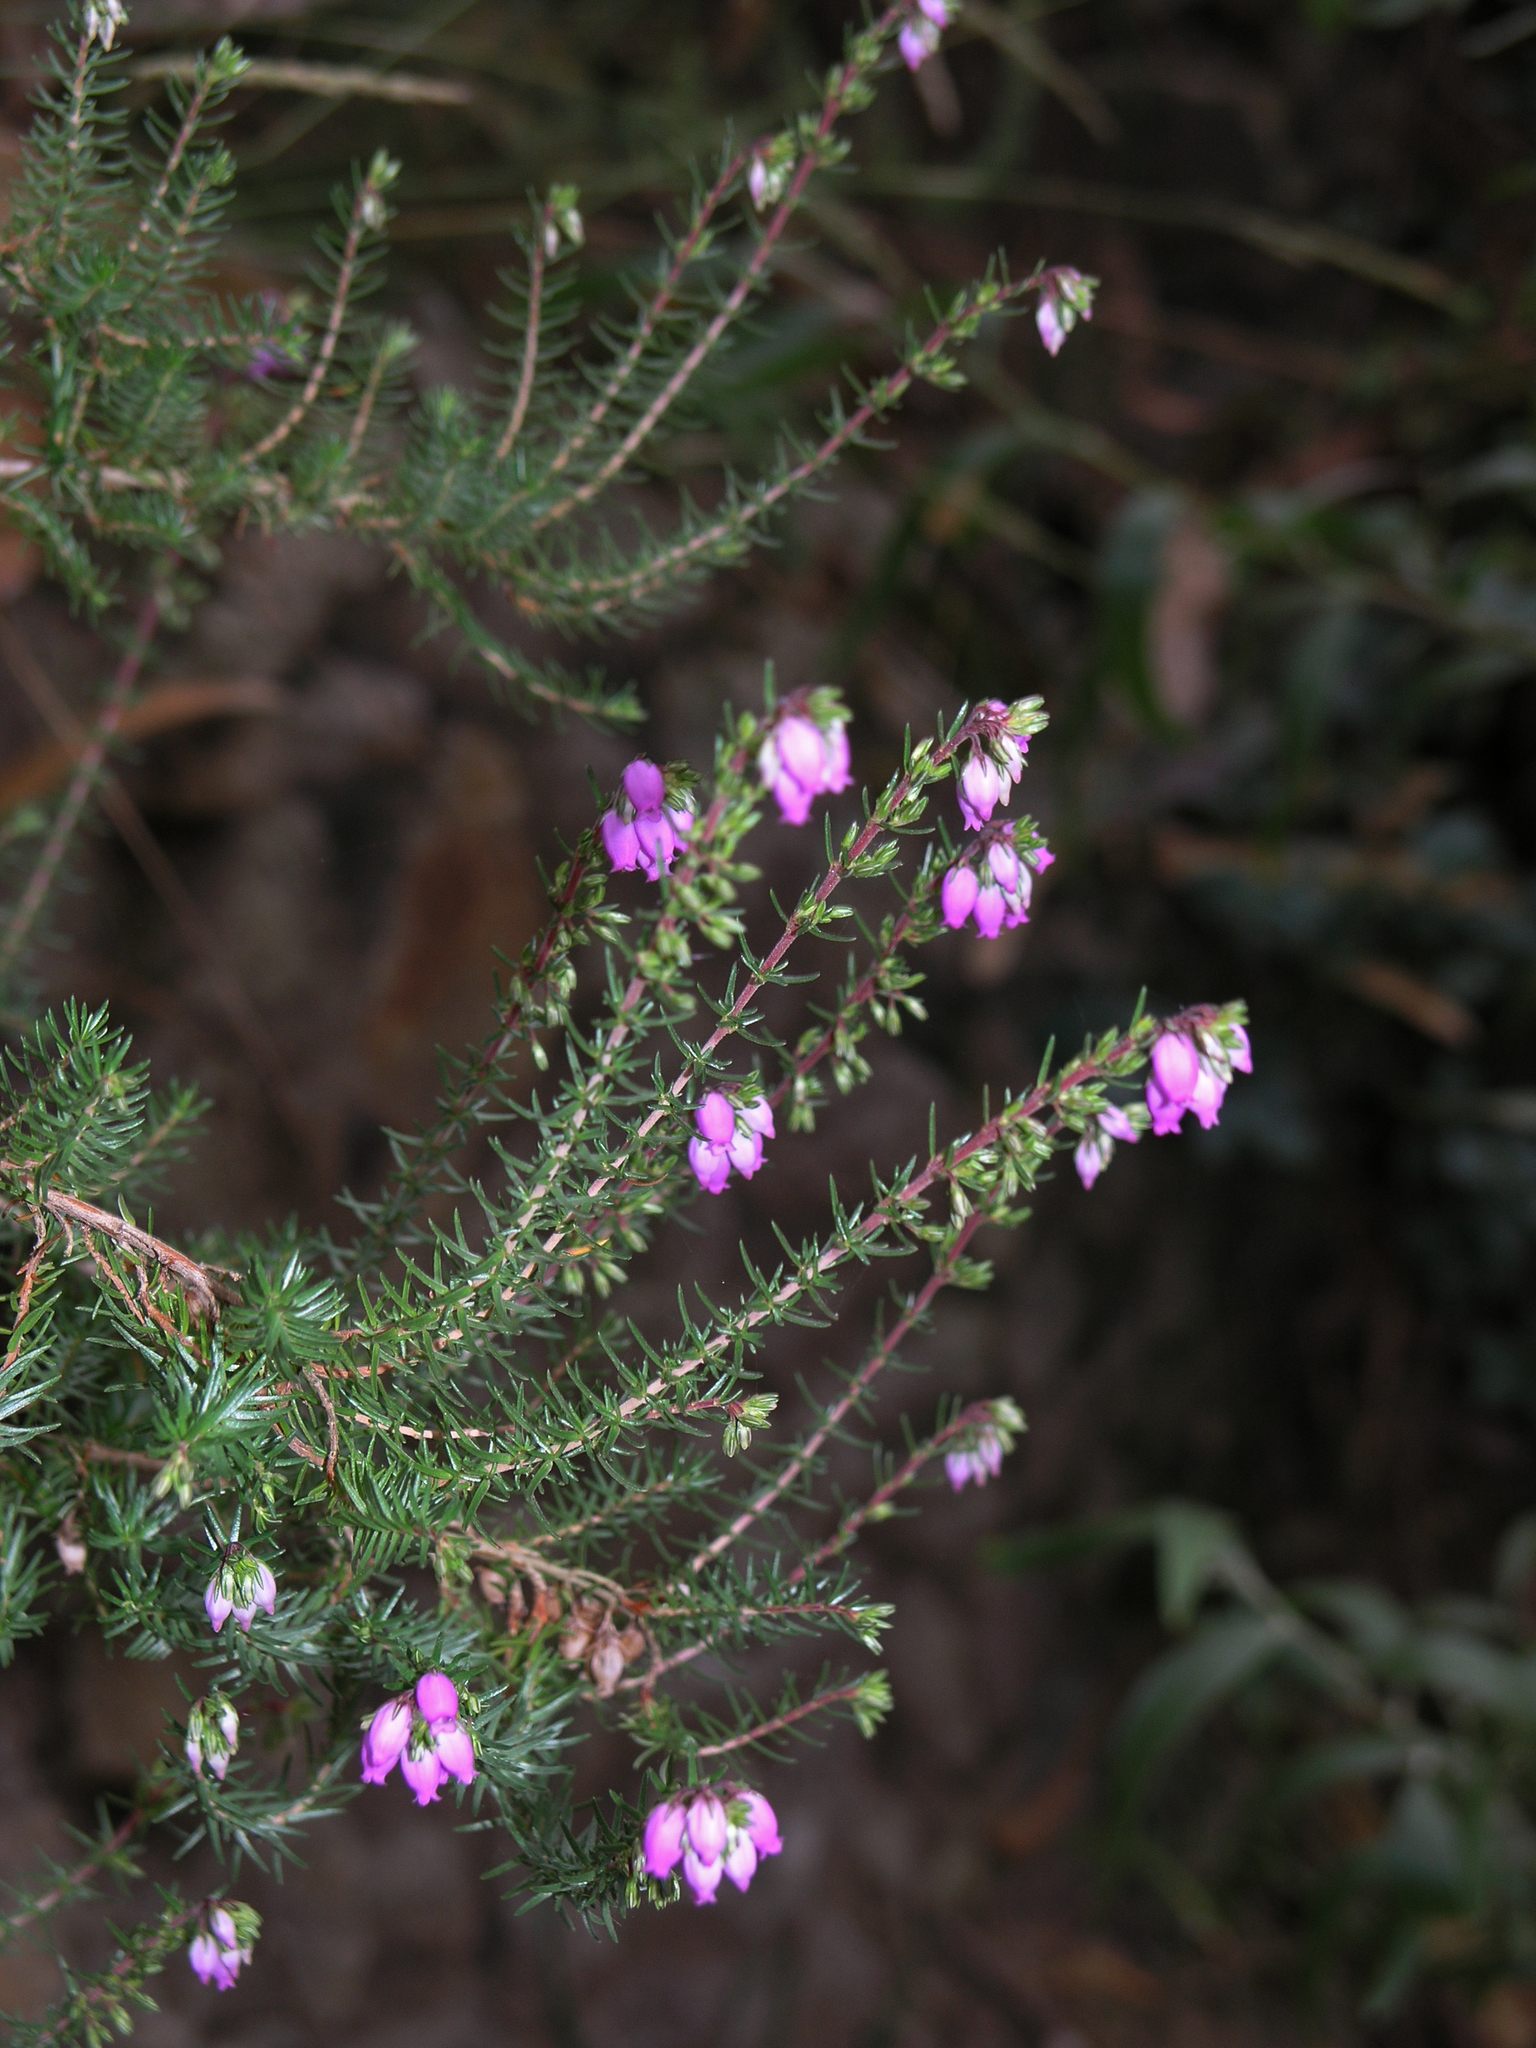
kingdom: Plantae
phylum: Tracheophyta
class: Magnoliopsida
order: Ericales
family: Ericaceae
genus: Erica
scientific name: Erica cinerea
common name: Bell heather
